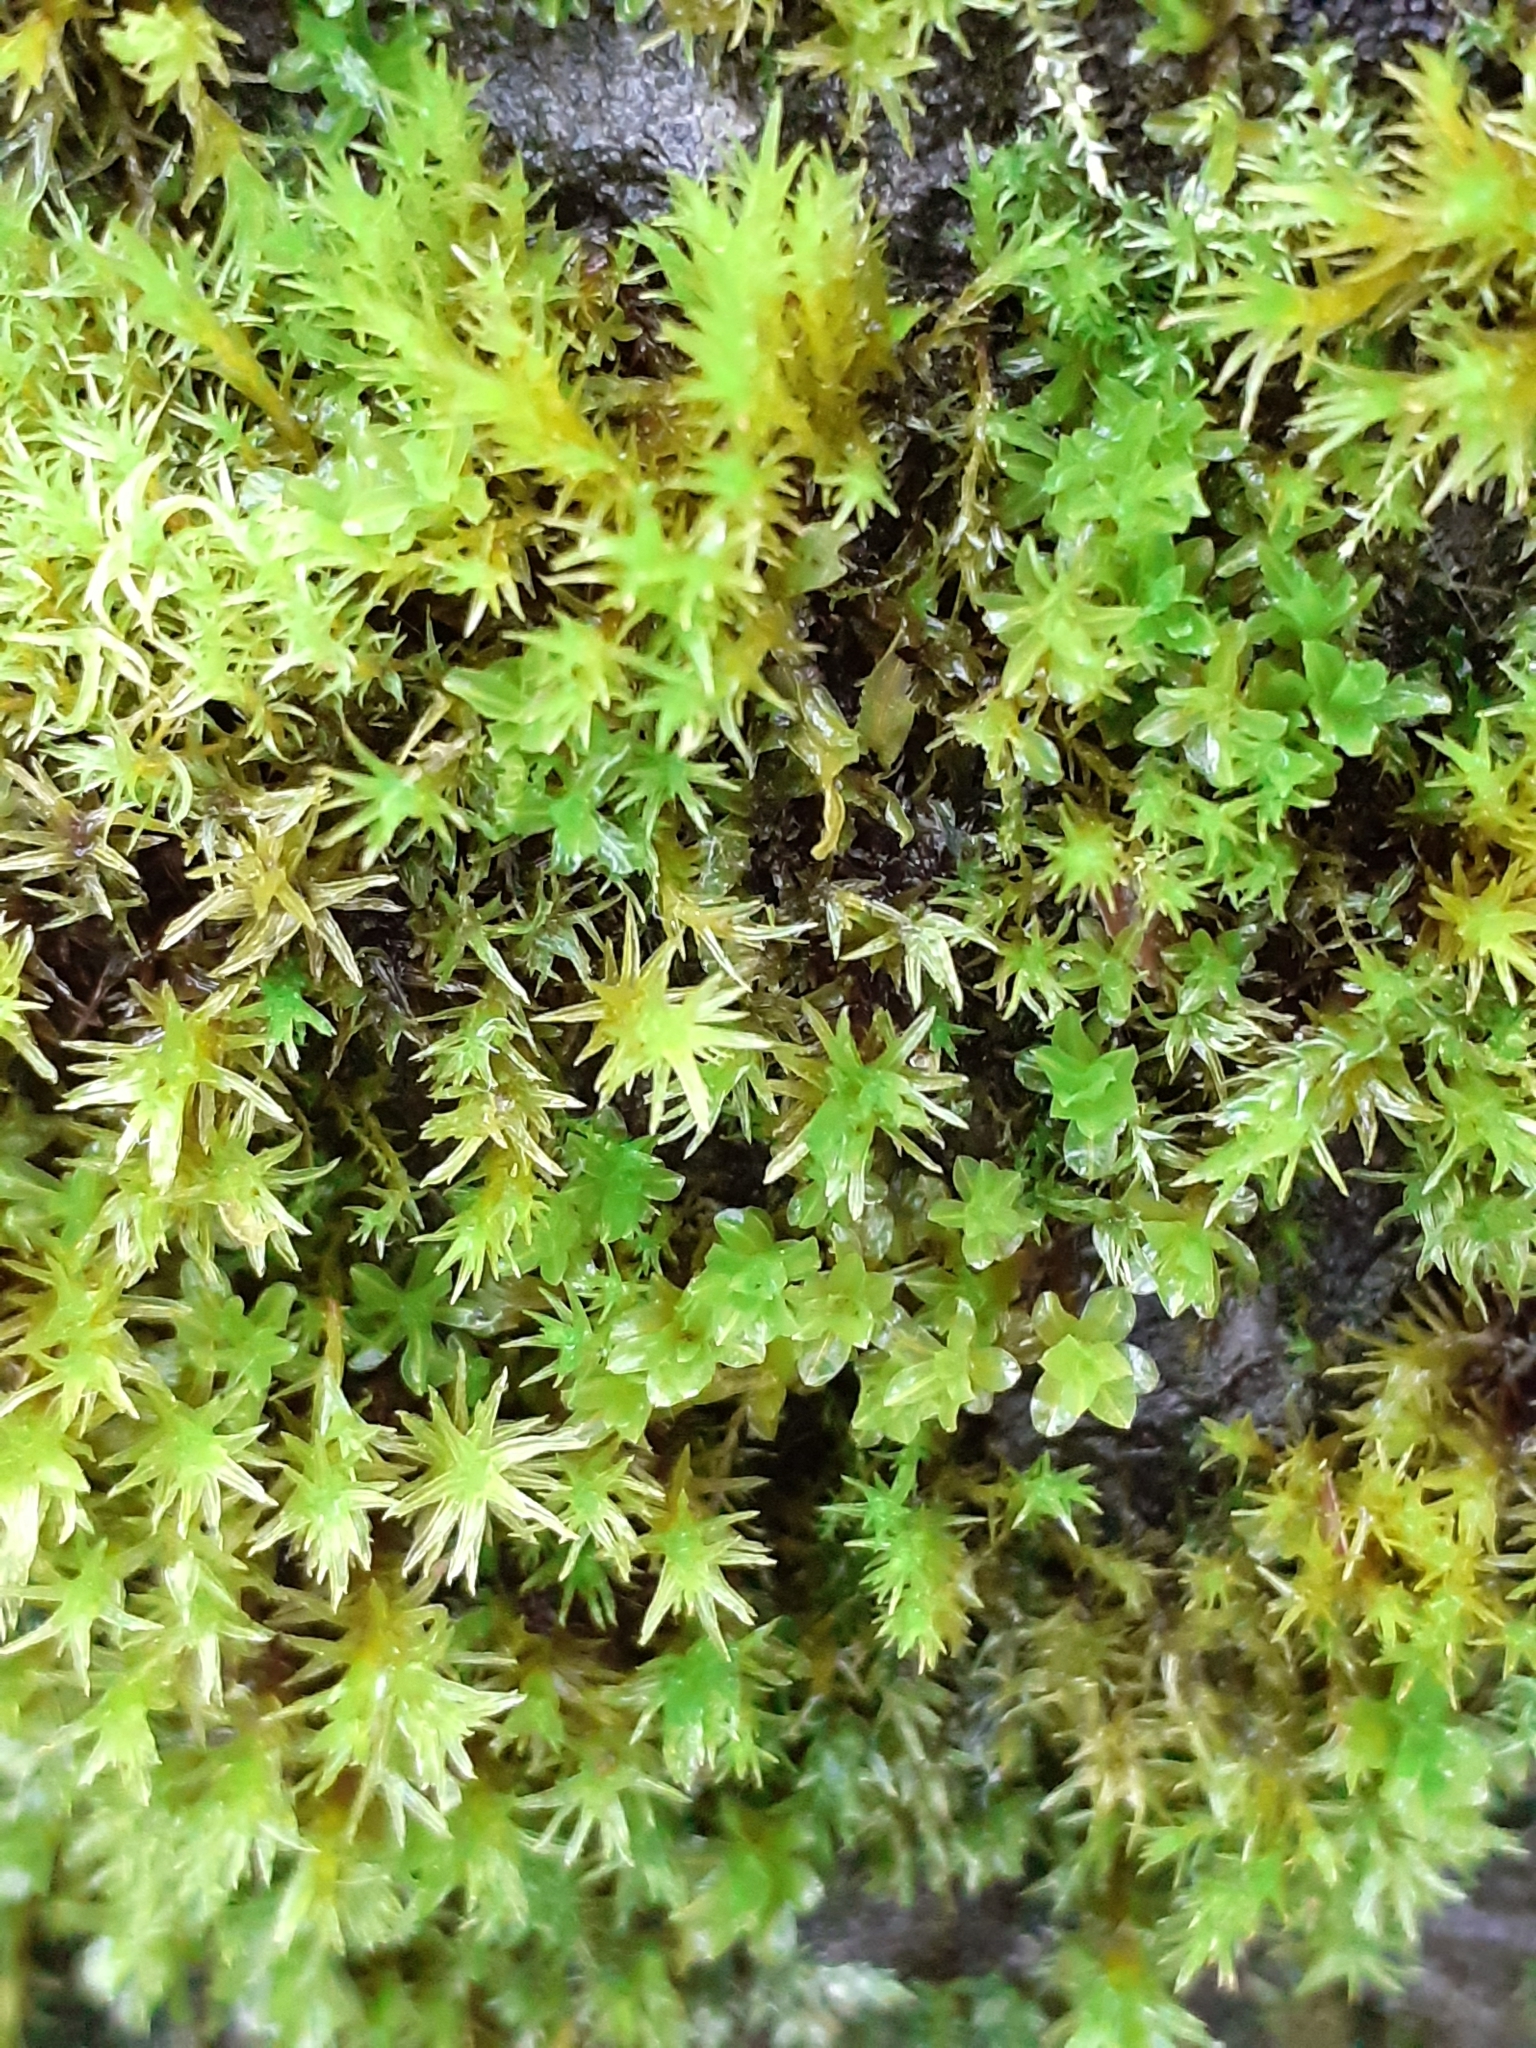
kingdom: Plantae
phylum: Bryophyta
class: Bryopsida
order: Pottiales
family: Pottiaceae
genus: Syntrichia
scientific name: Syntrichia latifolia
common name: Water screw-moss
